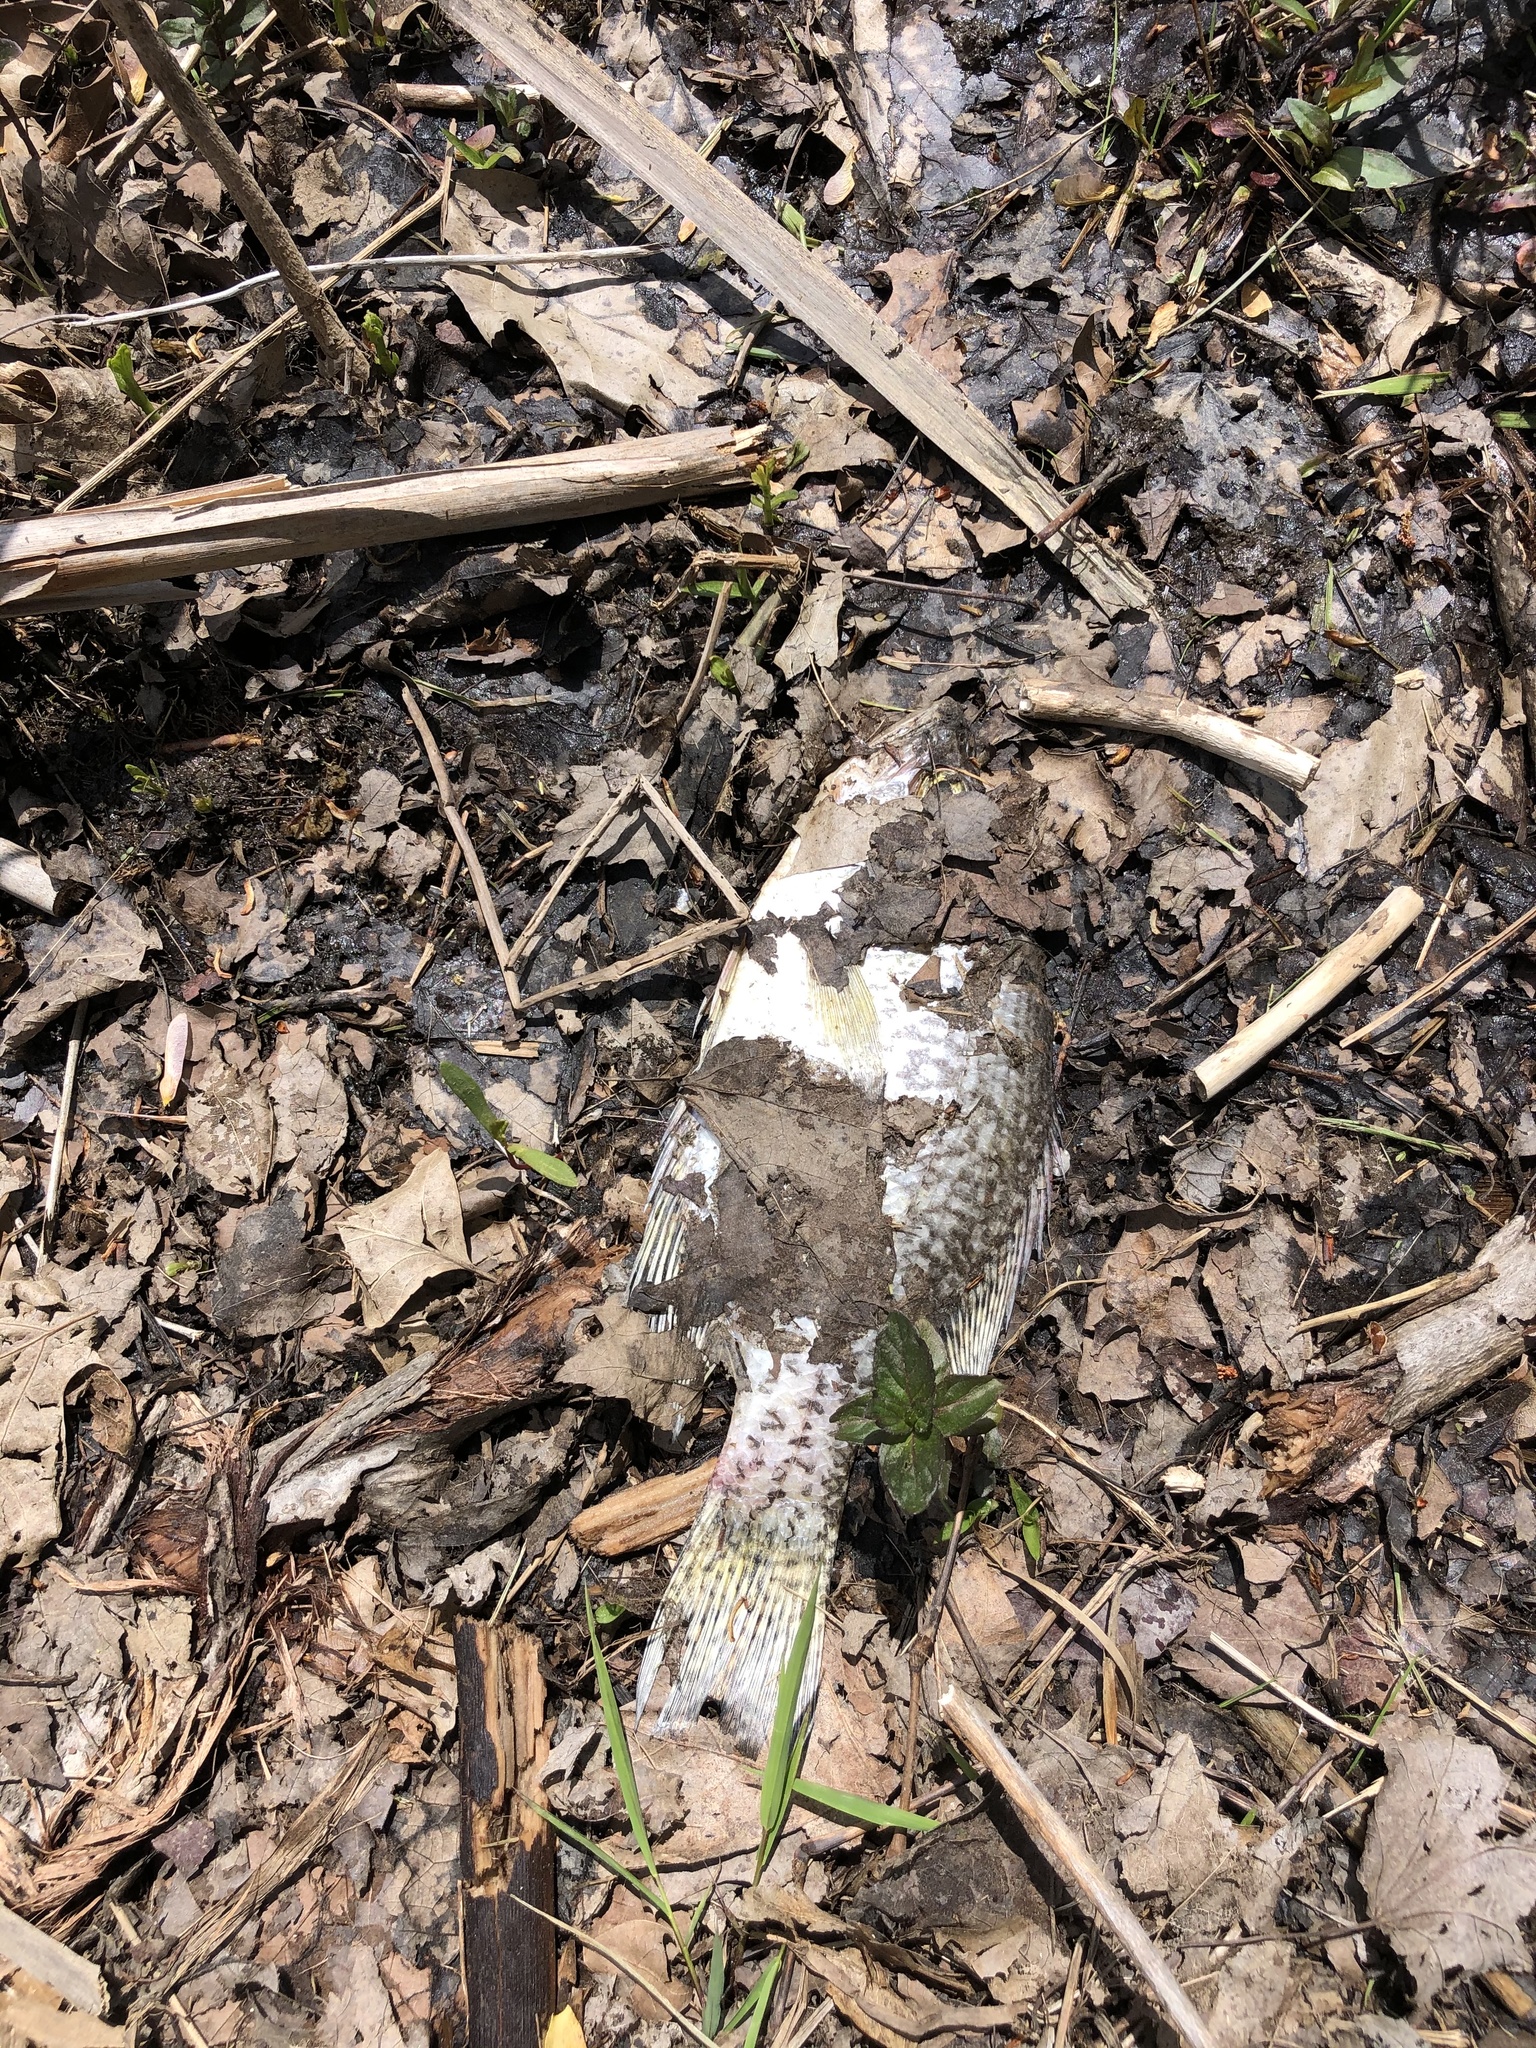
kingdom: Animalia
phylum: Chordata
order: Perciformes
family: Centrarchidae
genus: Pomoxis
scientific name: Pomoxis nigromaculatus
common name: Black crappie
